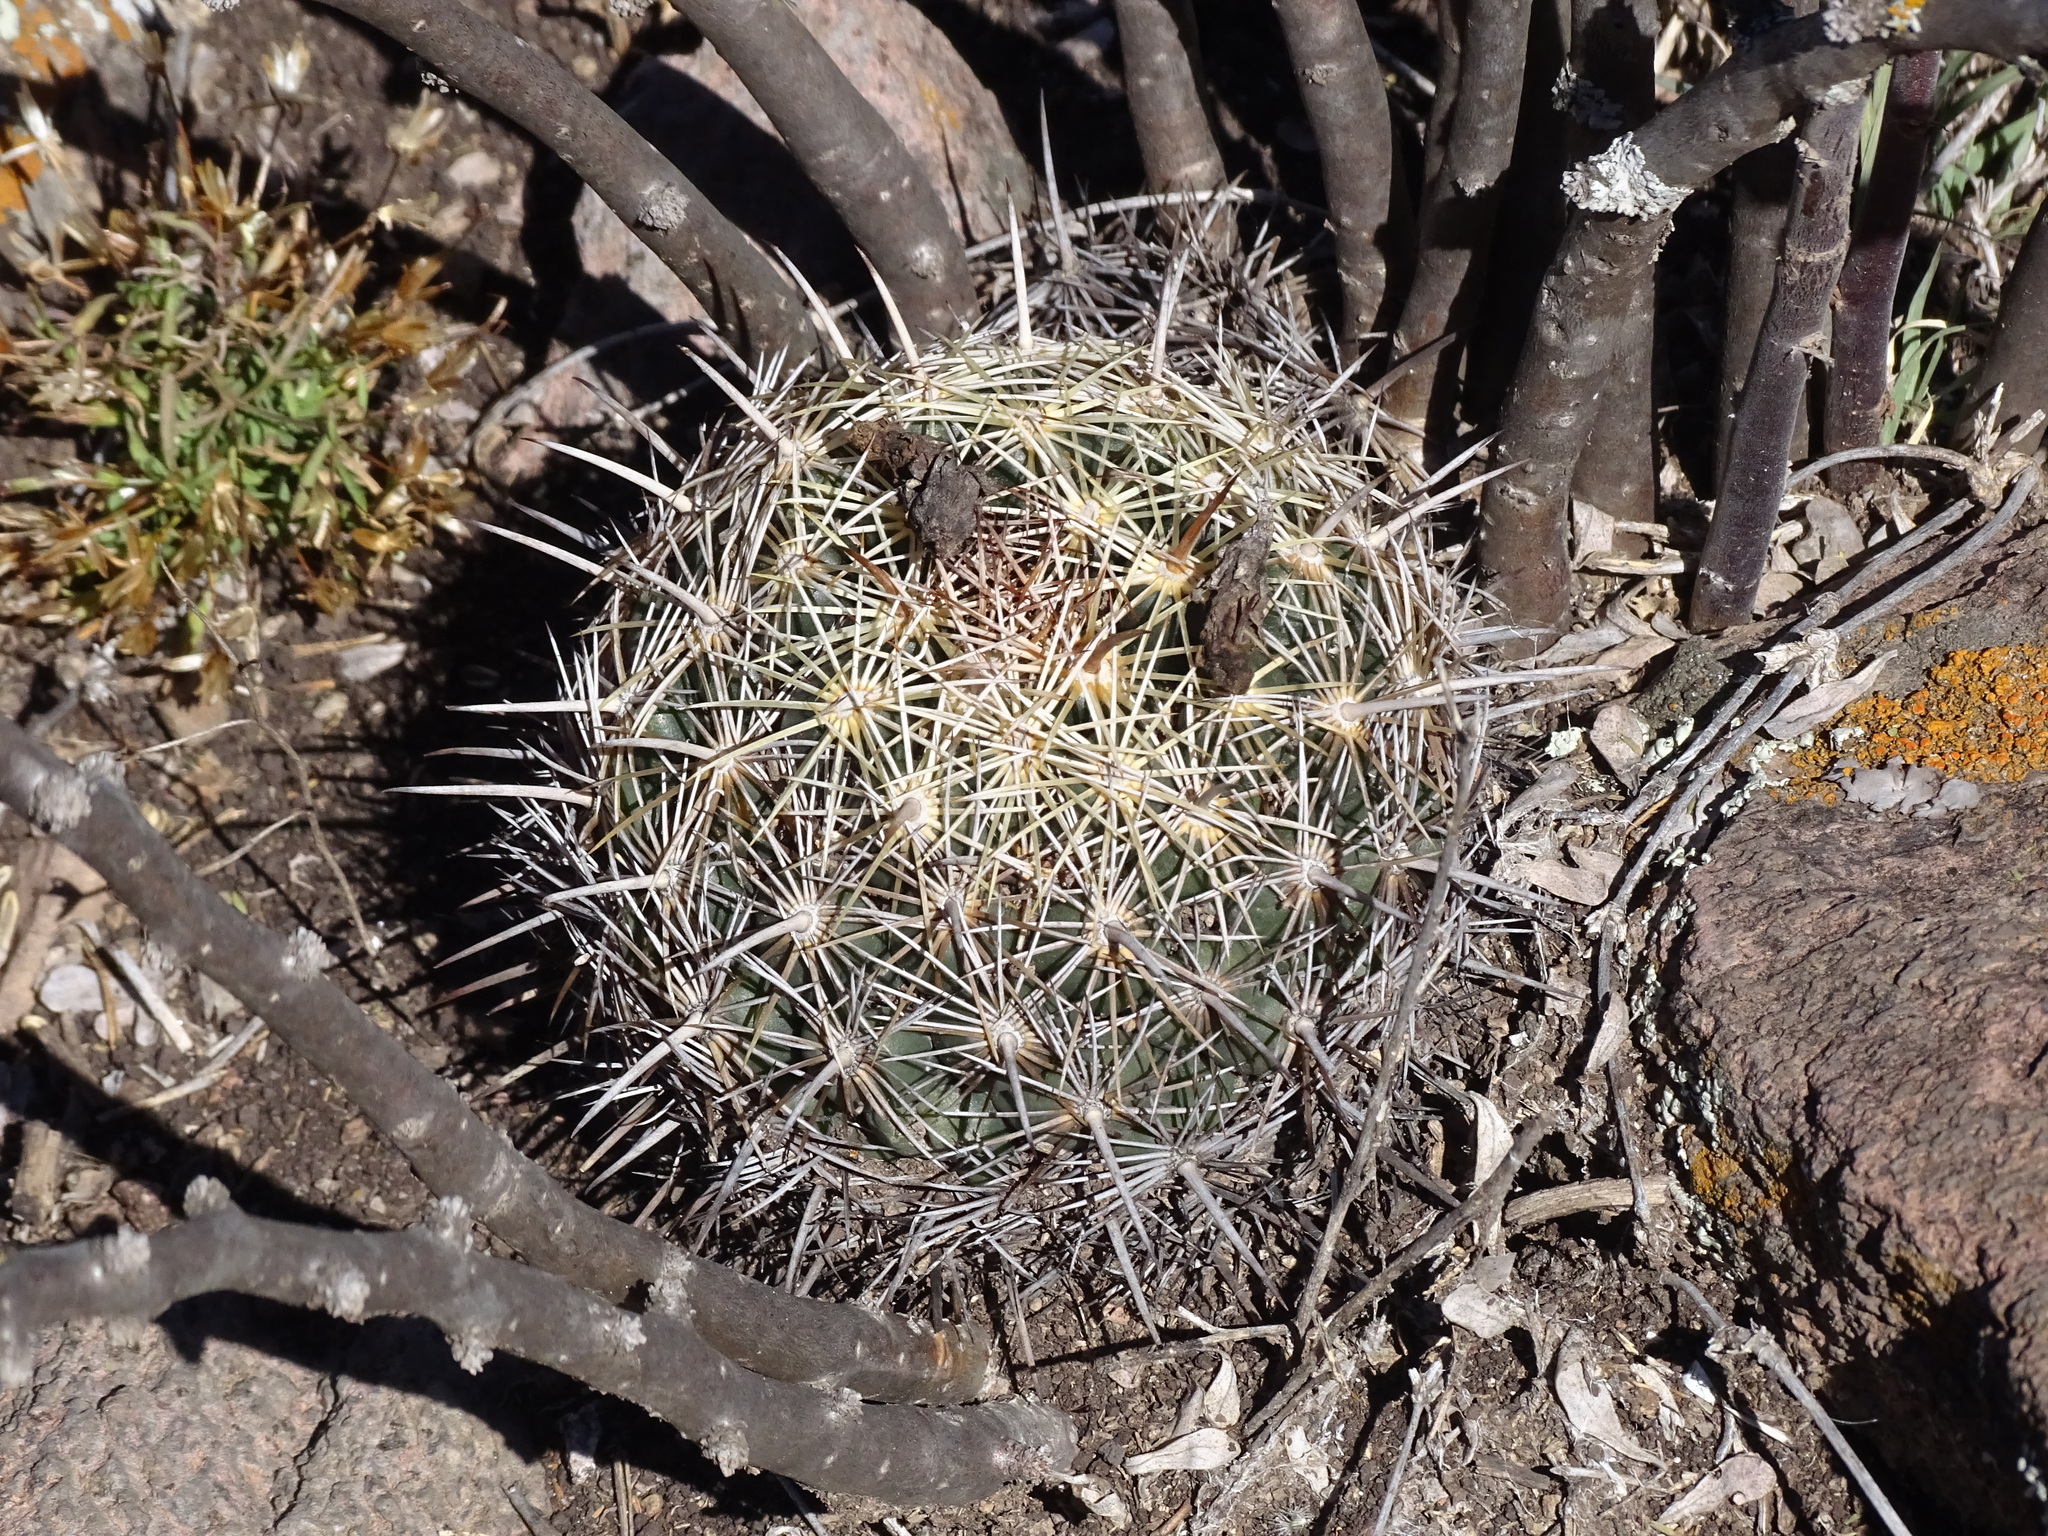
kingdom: Plantae
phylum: Tracheophyta
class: Magnoliopsida
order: Caryophyllales
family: Cactaceae
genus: Coryphantha
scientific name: Coryphantha cornifera
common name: Rhinoceros cactus
